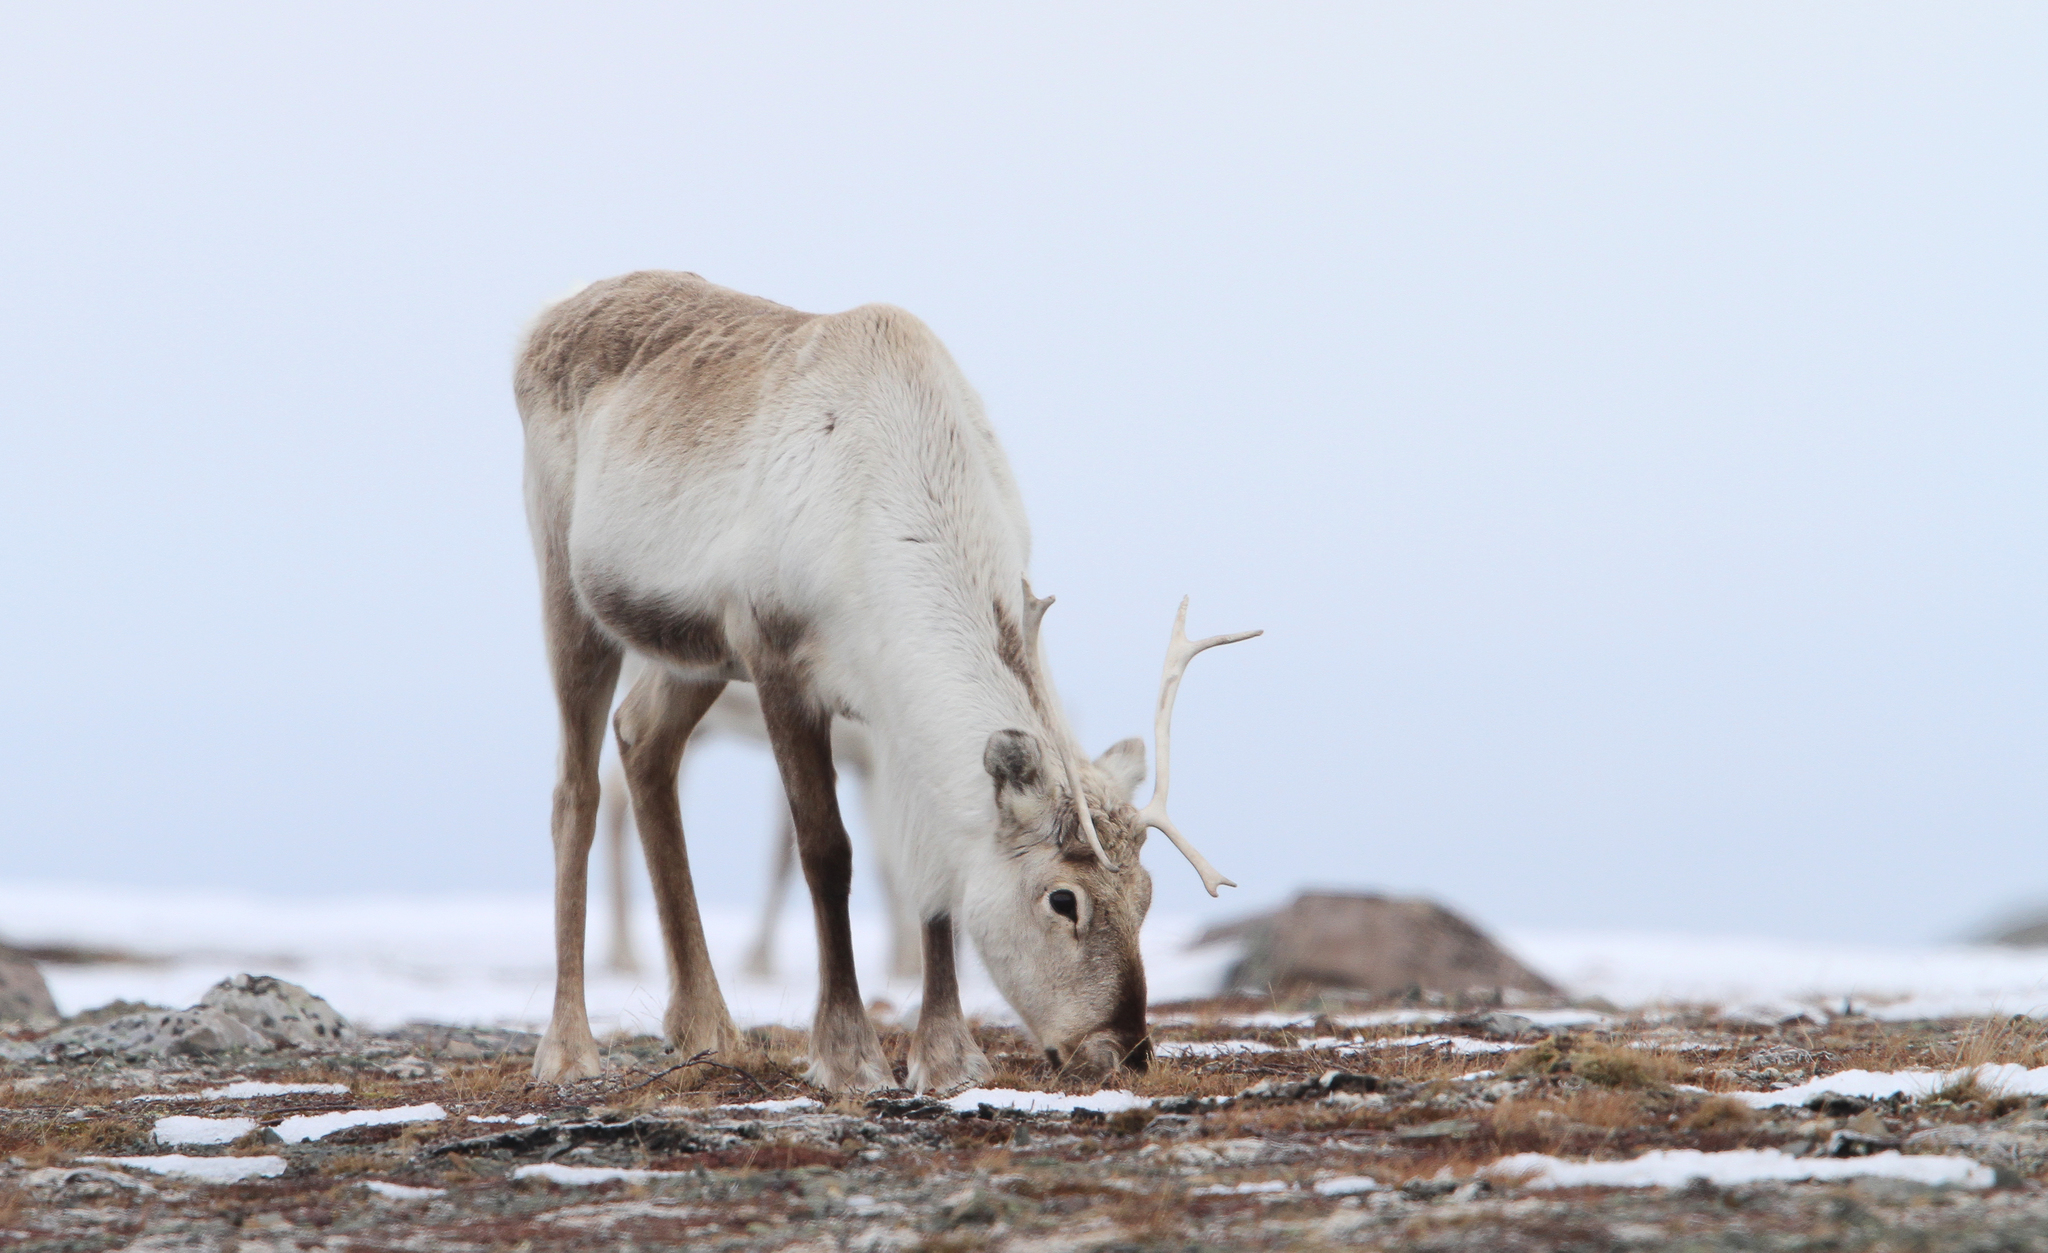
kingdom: Animalia
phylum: Chordata
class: Mammalia
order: Artiodactyla
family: Cervidae
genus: Rangifer
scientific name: Rangifer tarandus
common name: Reindeer
